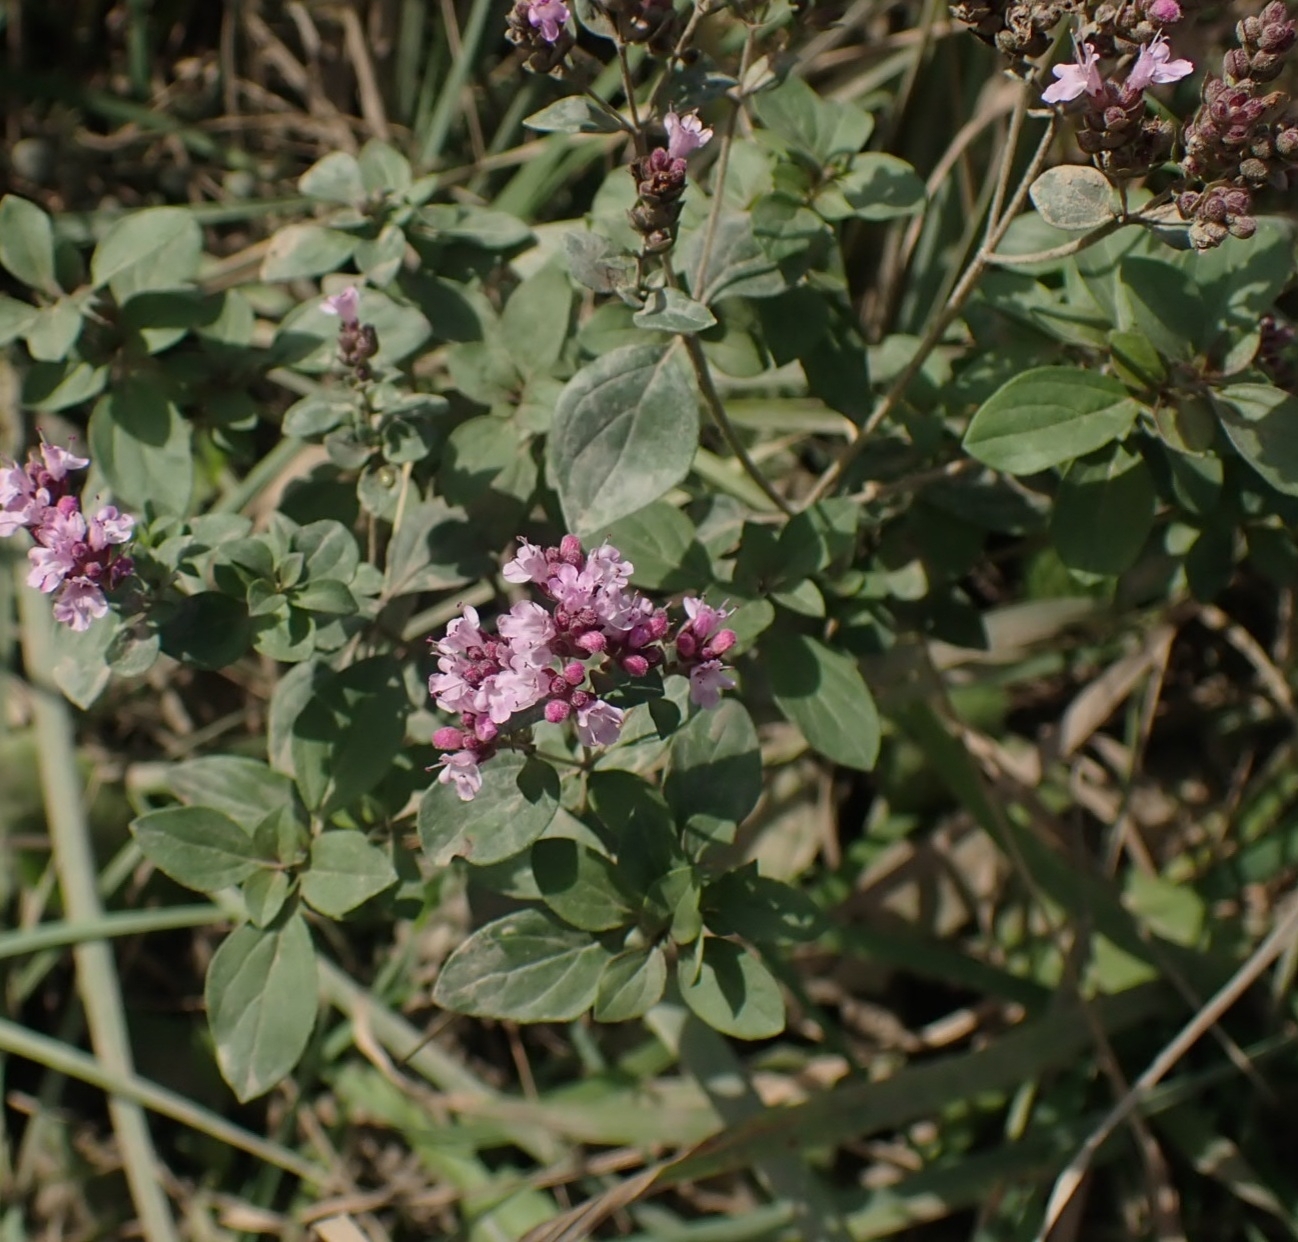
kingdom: Plantae
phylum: Tracheophyta
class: Magnoliopsida
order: Lamiales
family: Lamiaceae
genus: Origanum
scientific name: Origanum vulgare
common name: Wild marjoram
